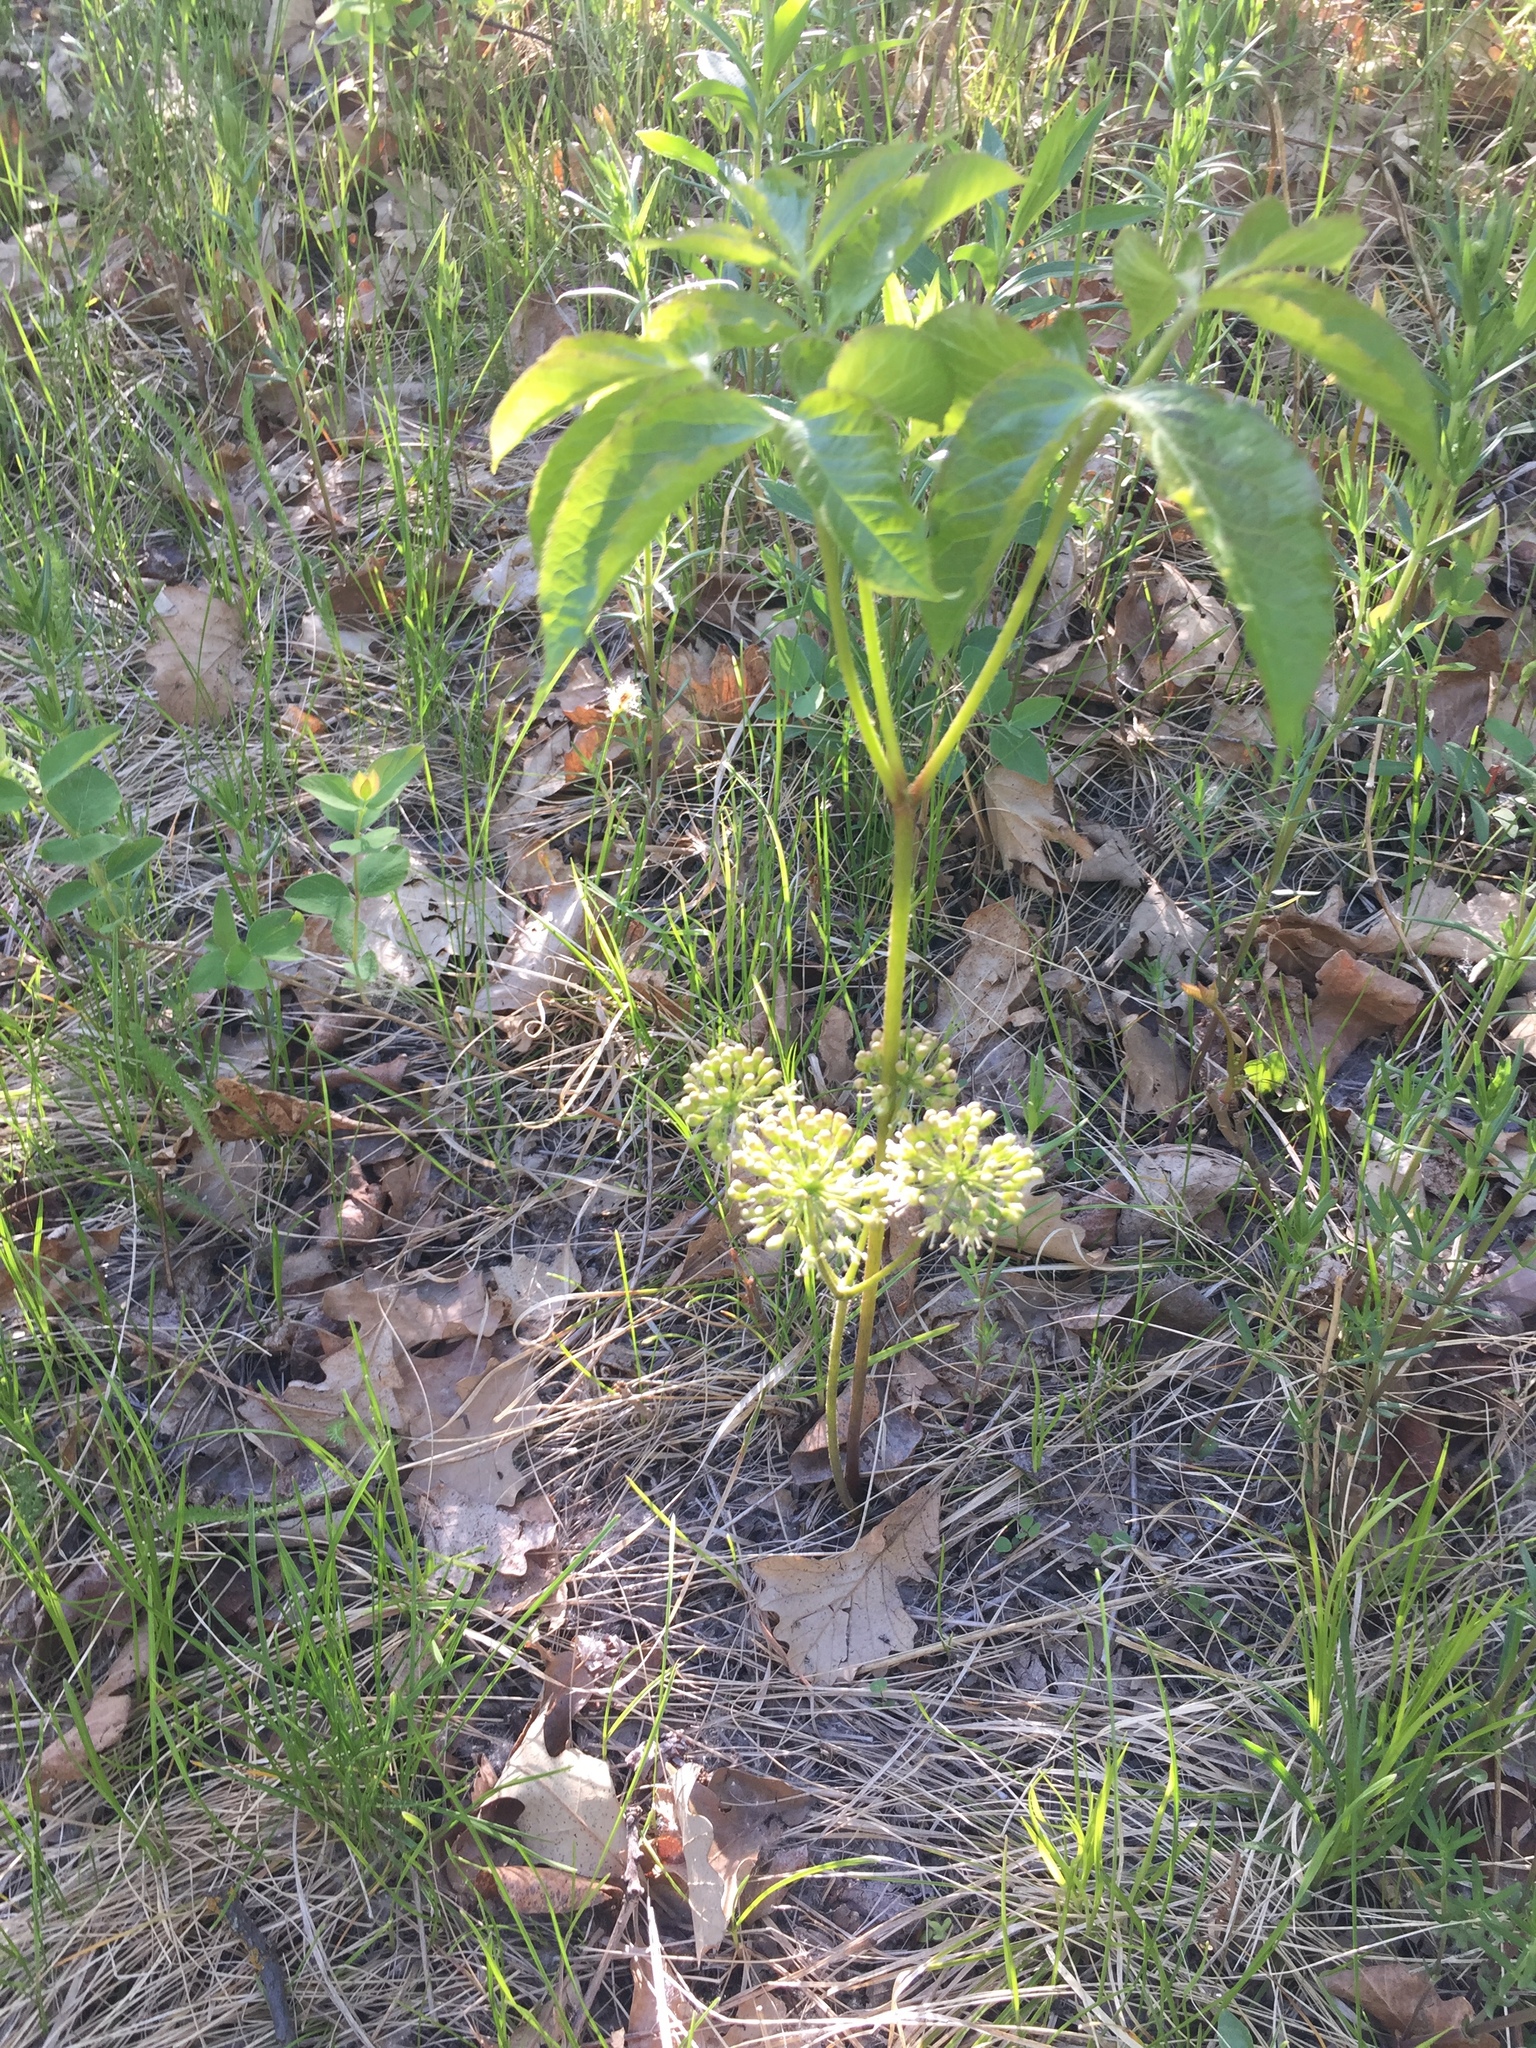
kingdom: Plantae
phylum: Tracheophyta
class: Magnoliopsida
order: Apiales
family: Araliaceae
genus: Aralia
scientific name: Aralia nudicaulis
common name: Wild sarsaparilla
